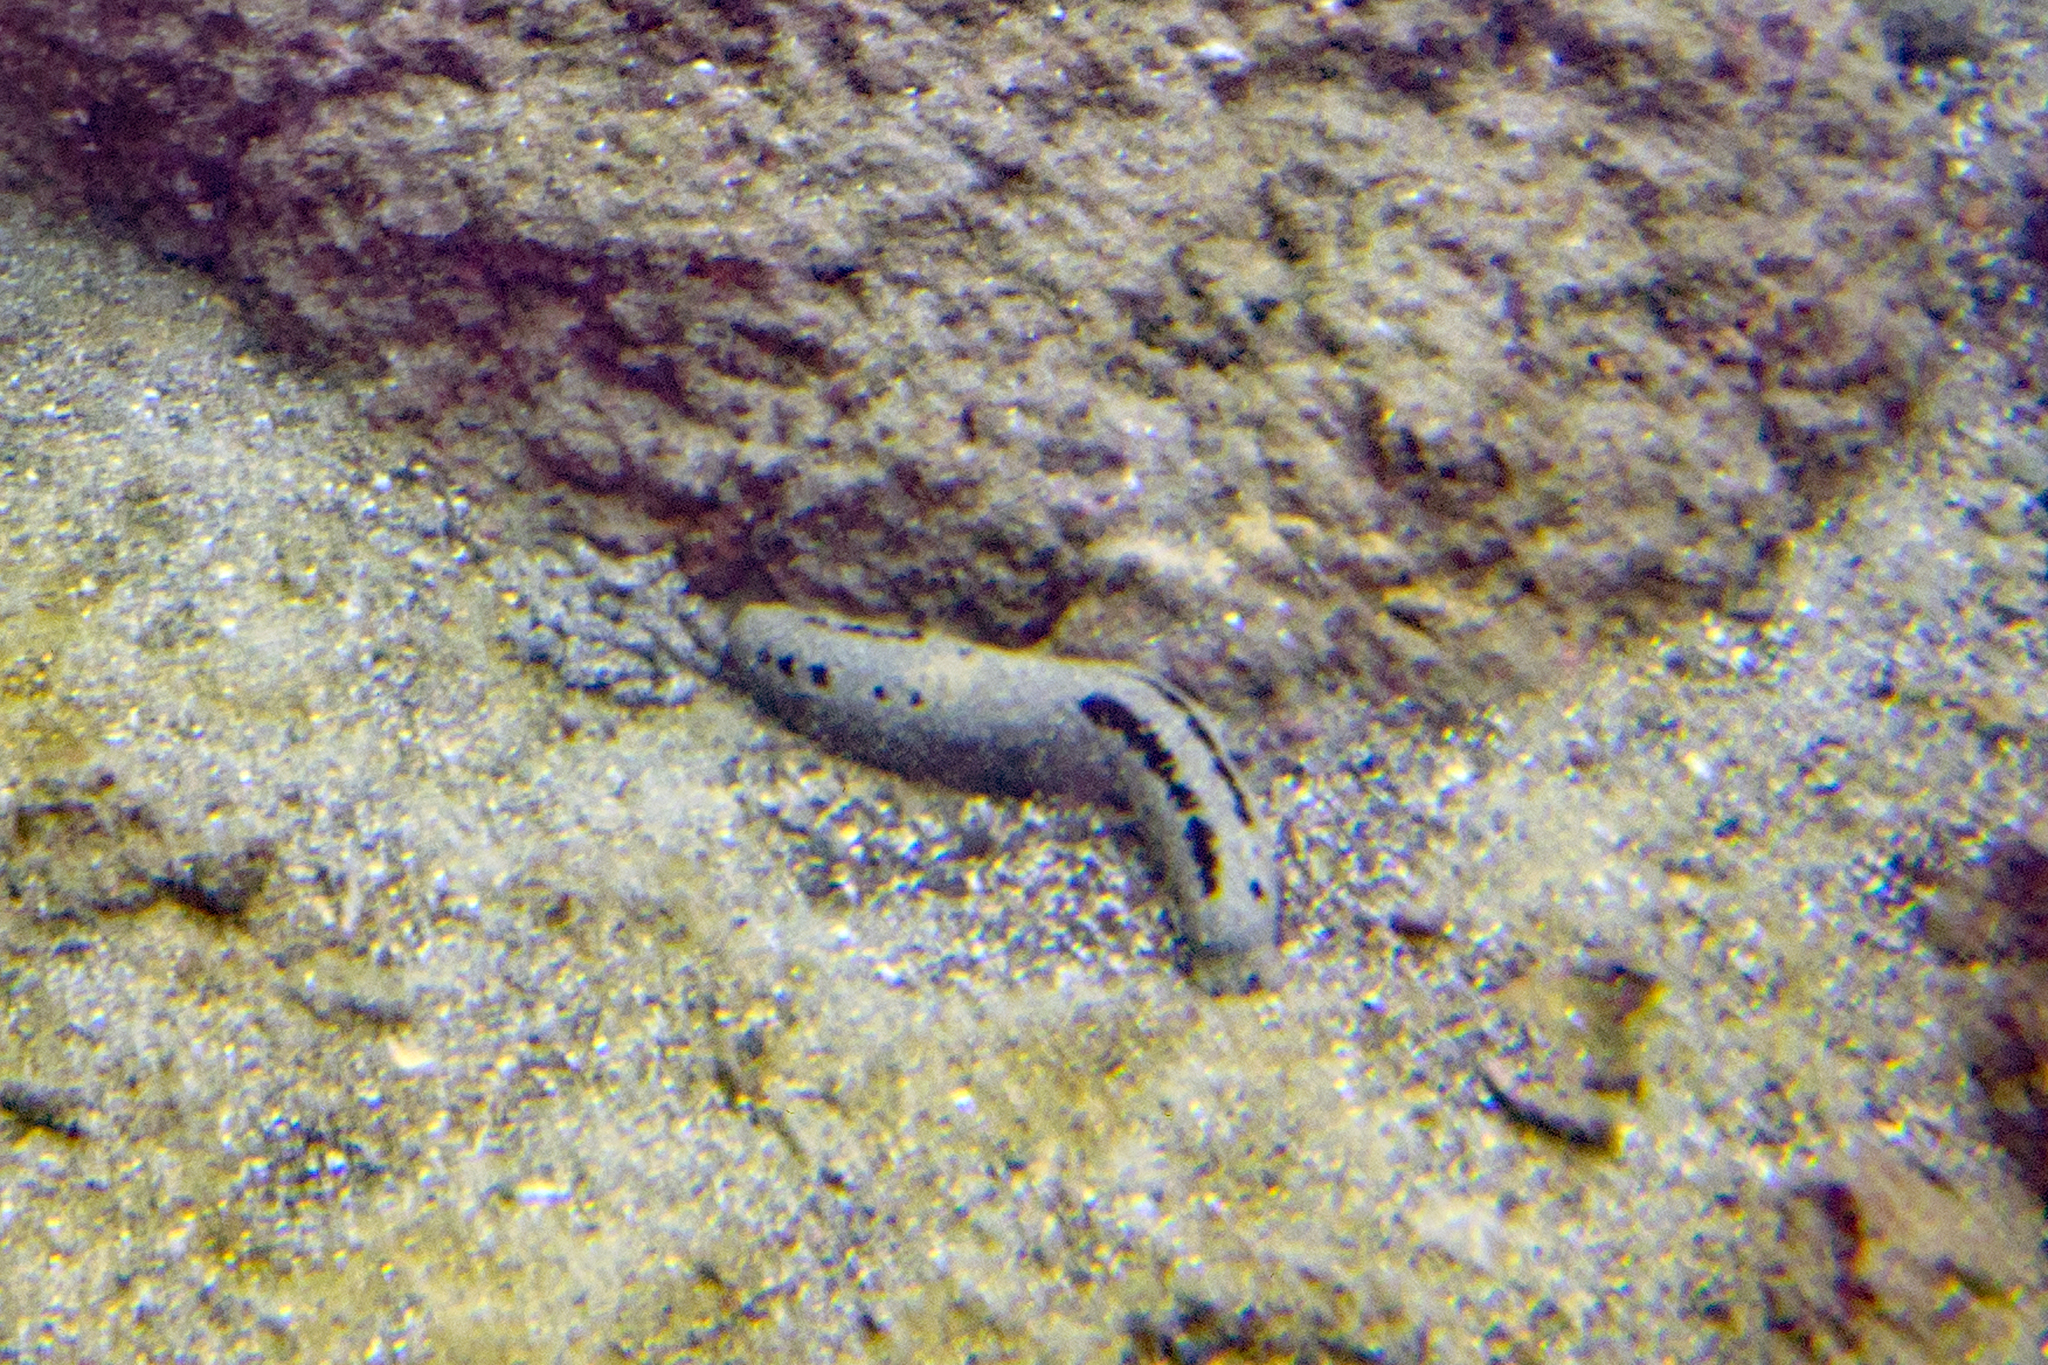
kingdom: Animalia
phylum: Echinodermata
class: Holothuroidea
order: Holothuriida
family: Holothuriidae
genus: Holothuria
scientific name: Holothuria atra
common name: Lollyfish
